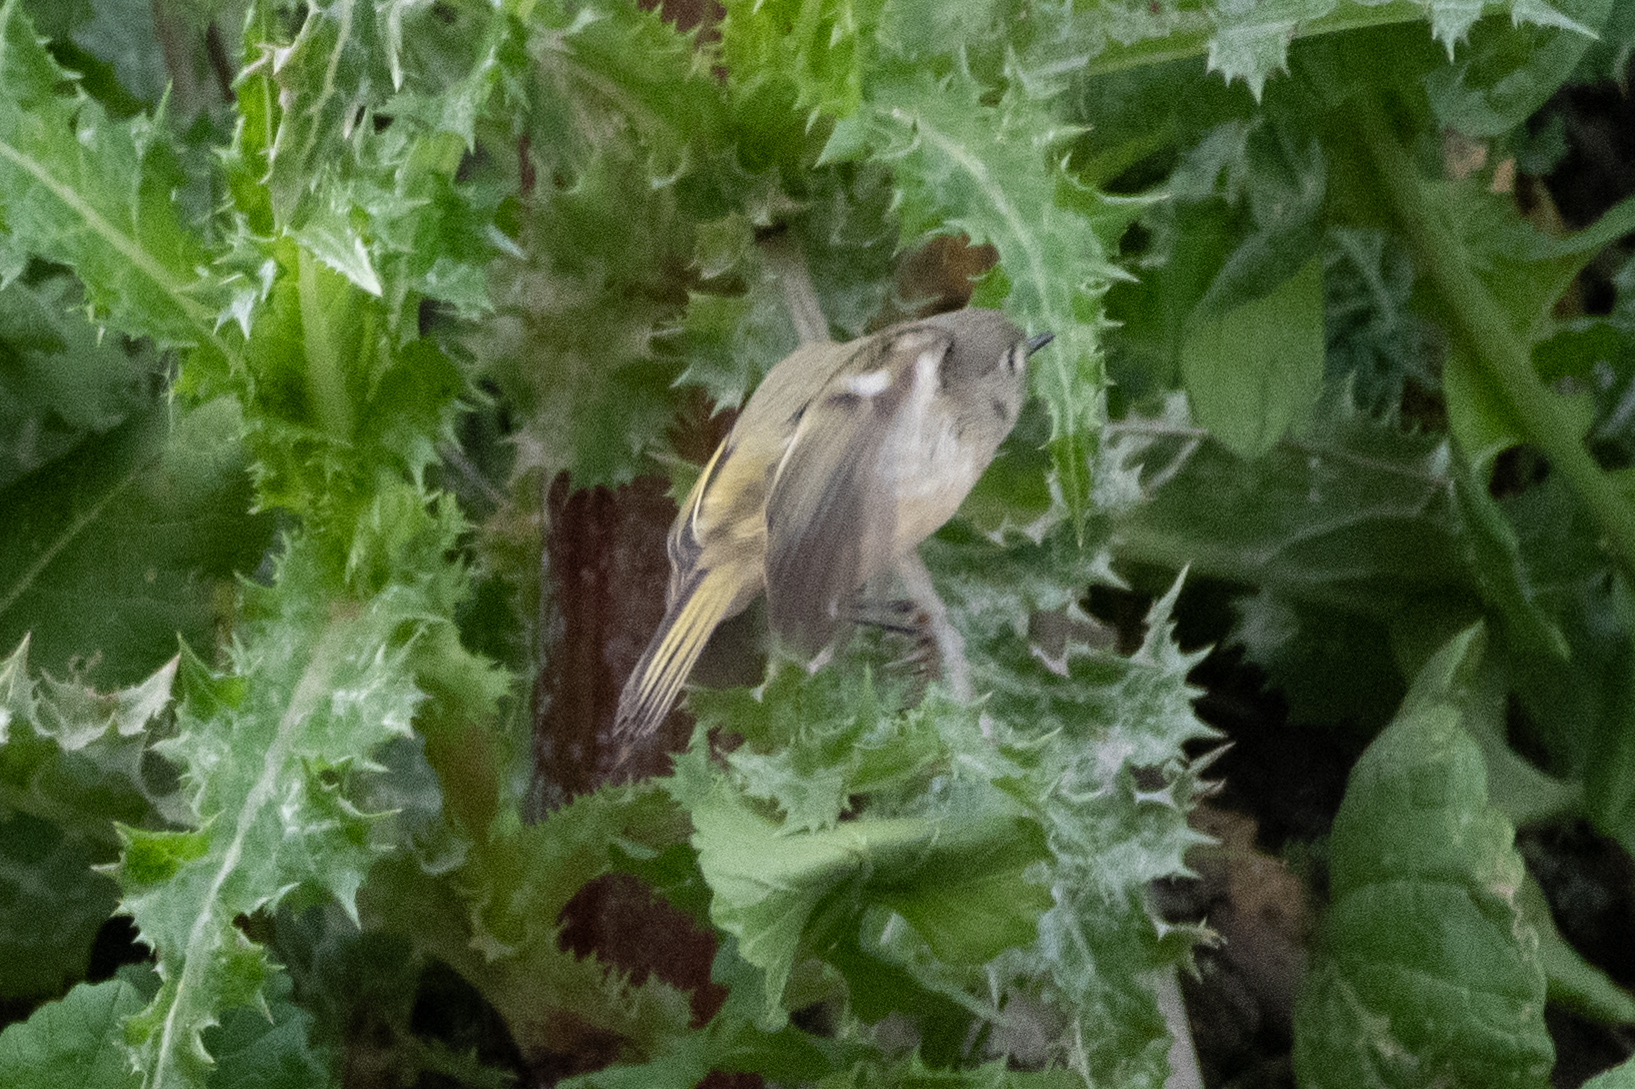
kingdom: Animalia
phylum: Chordata
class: Aves
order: Passeriformes
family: Regulidae
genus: Regulus
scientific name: Regulus calendula
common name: Ruby-crowned kinglet
